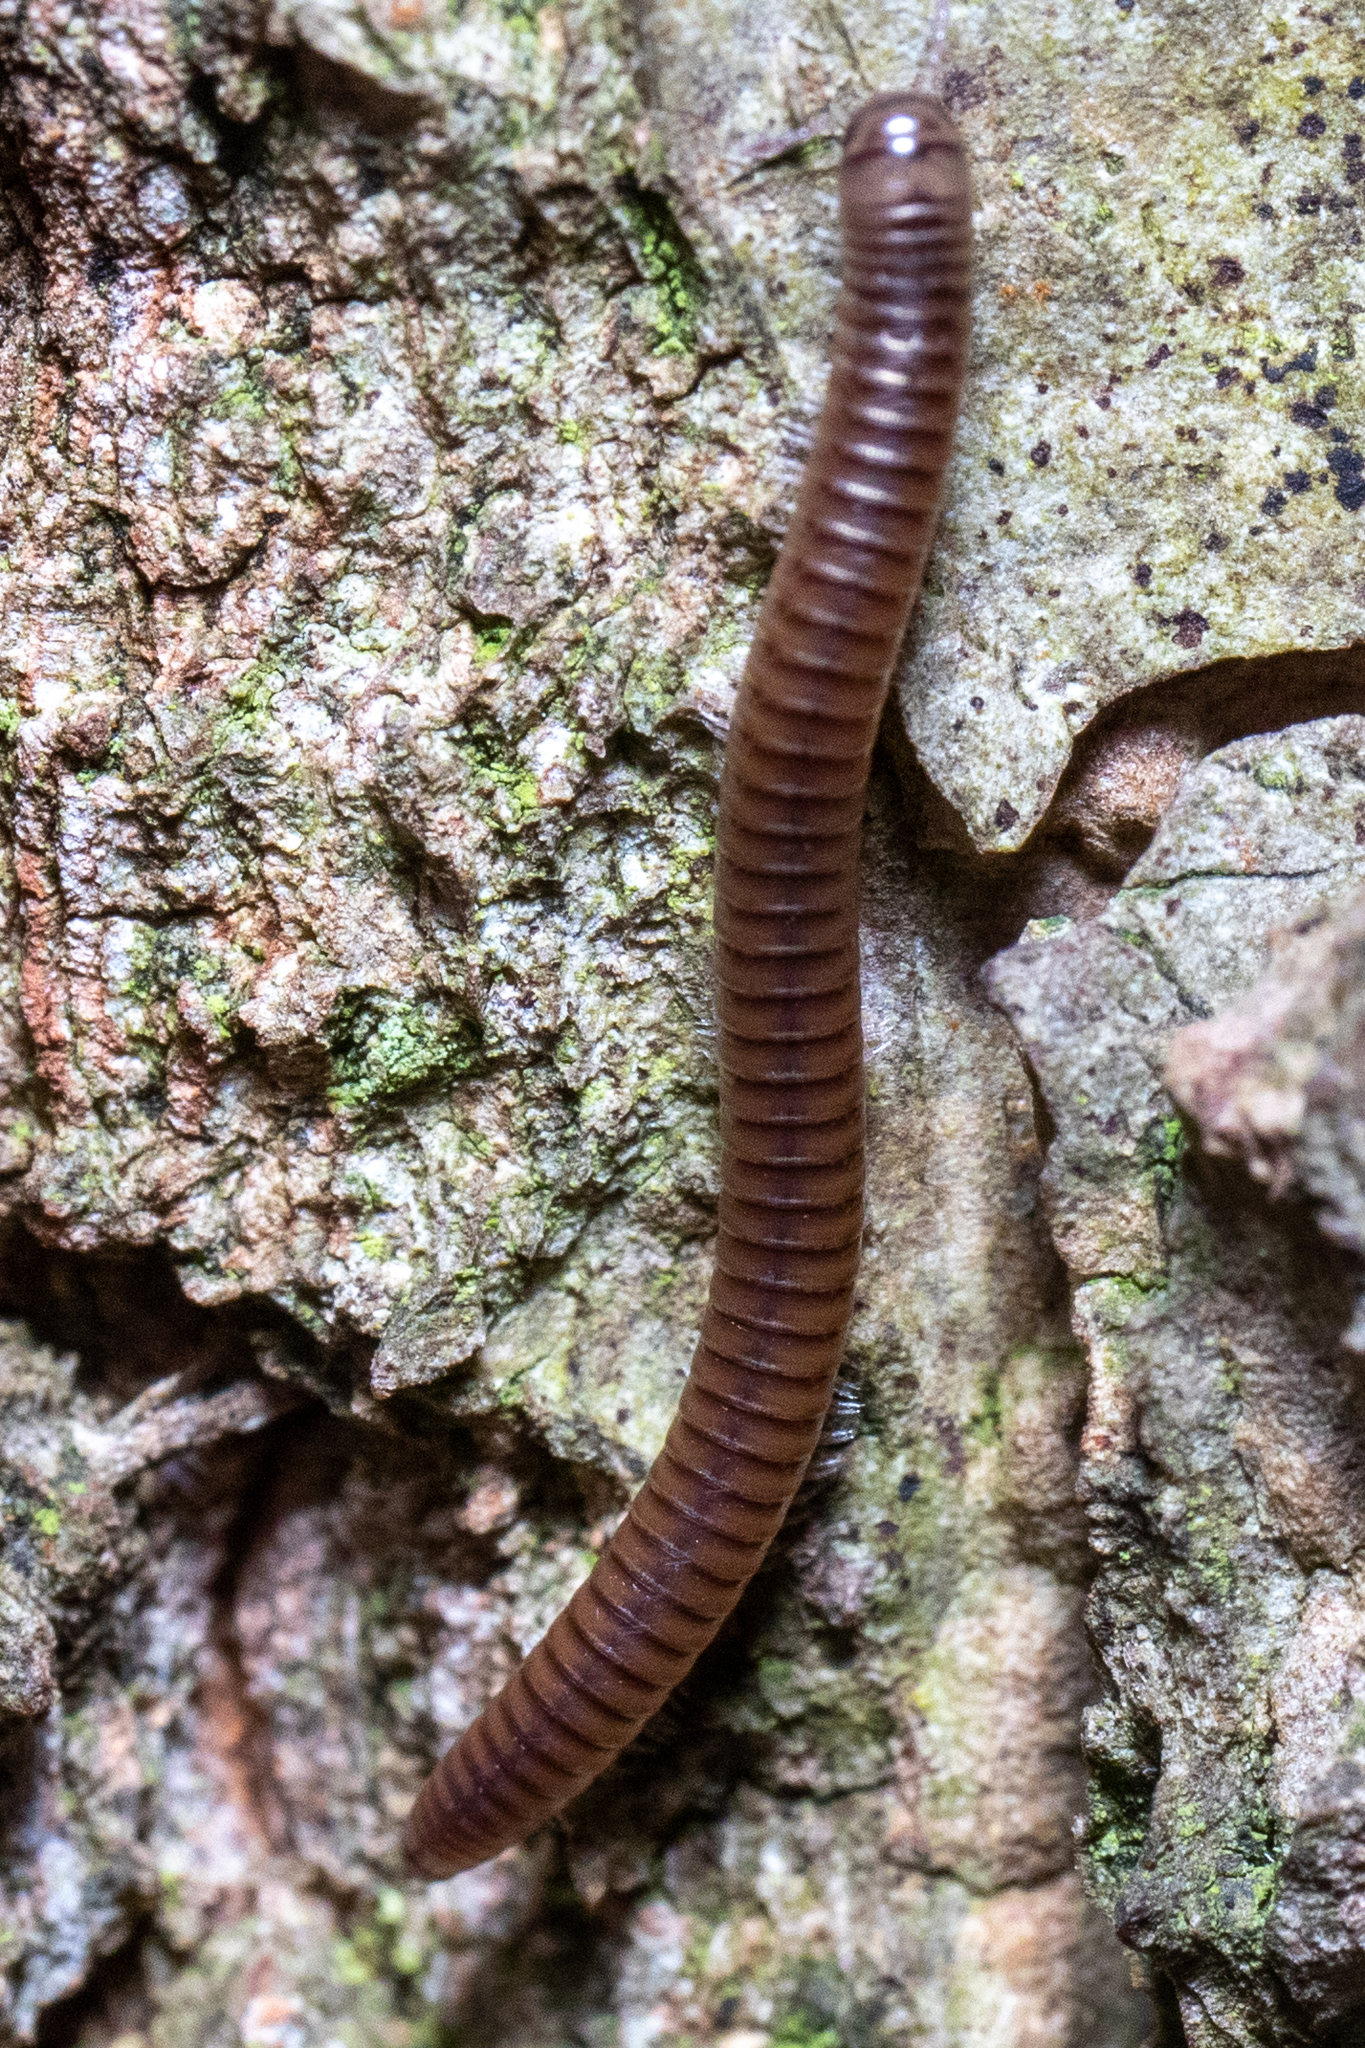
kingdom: Animalia
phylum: Arthropoda
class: Diplopoda
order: Julida
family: Julidae
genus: Cylindroiulus
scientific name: Cylindroiulus punctatus
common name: Blunt-tailed millipede
